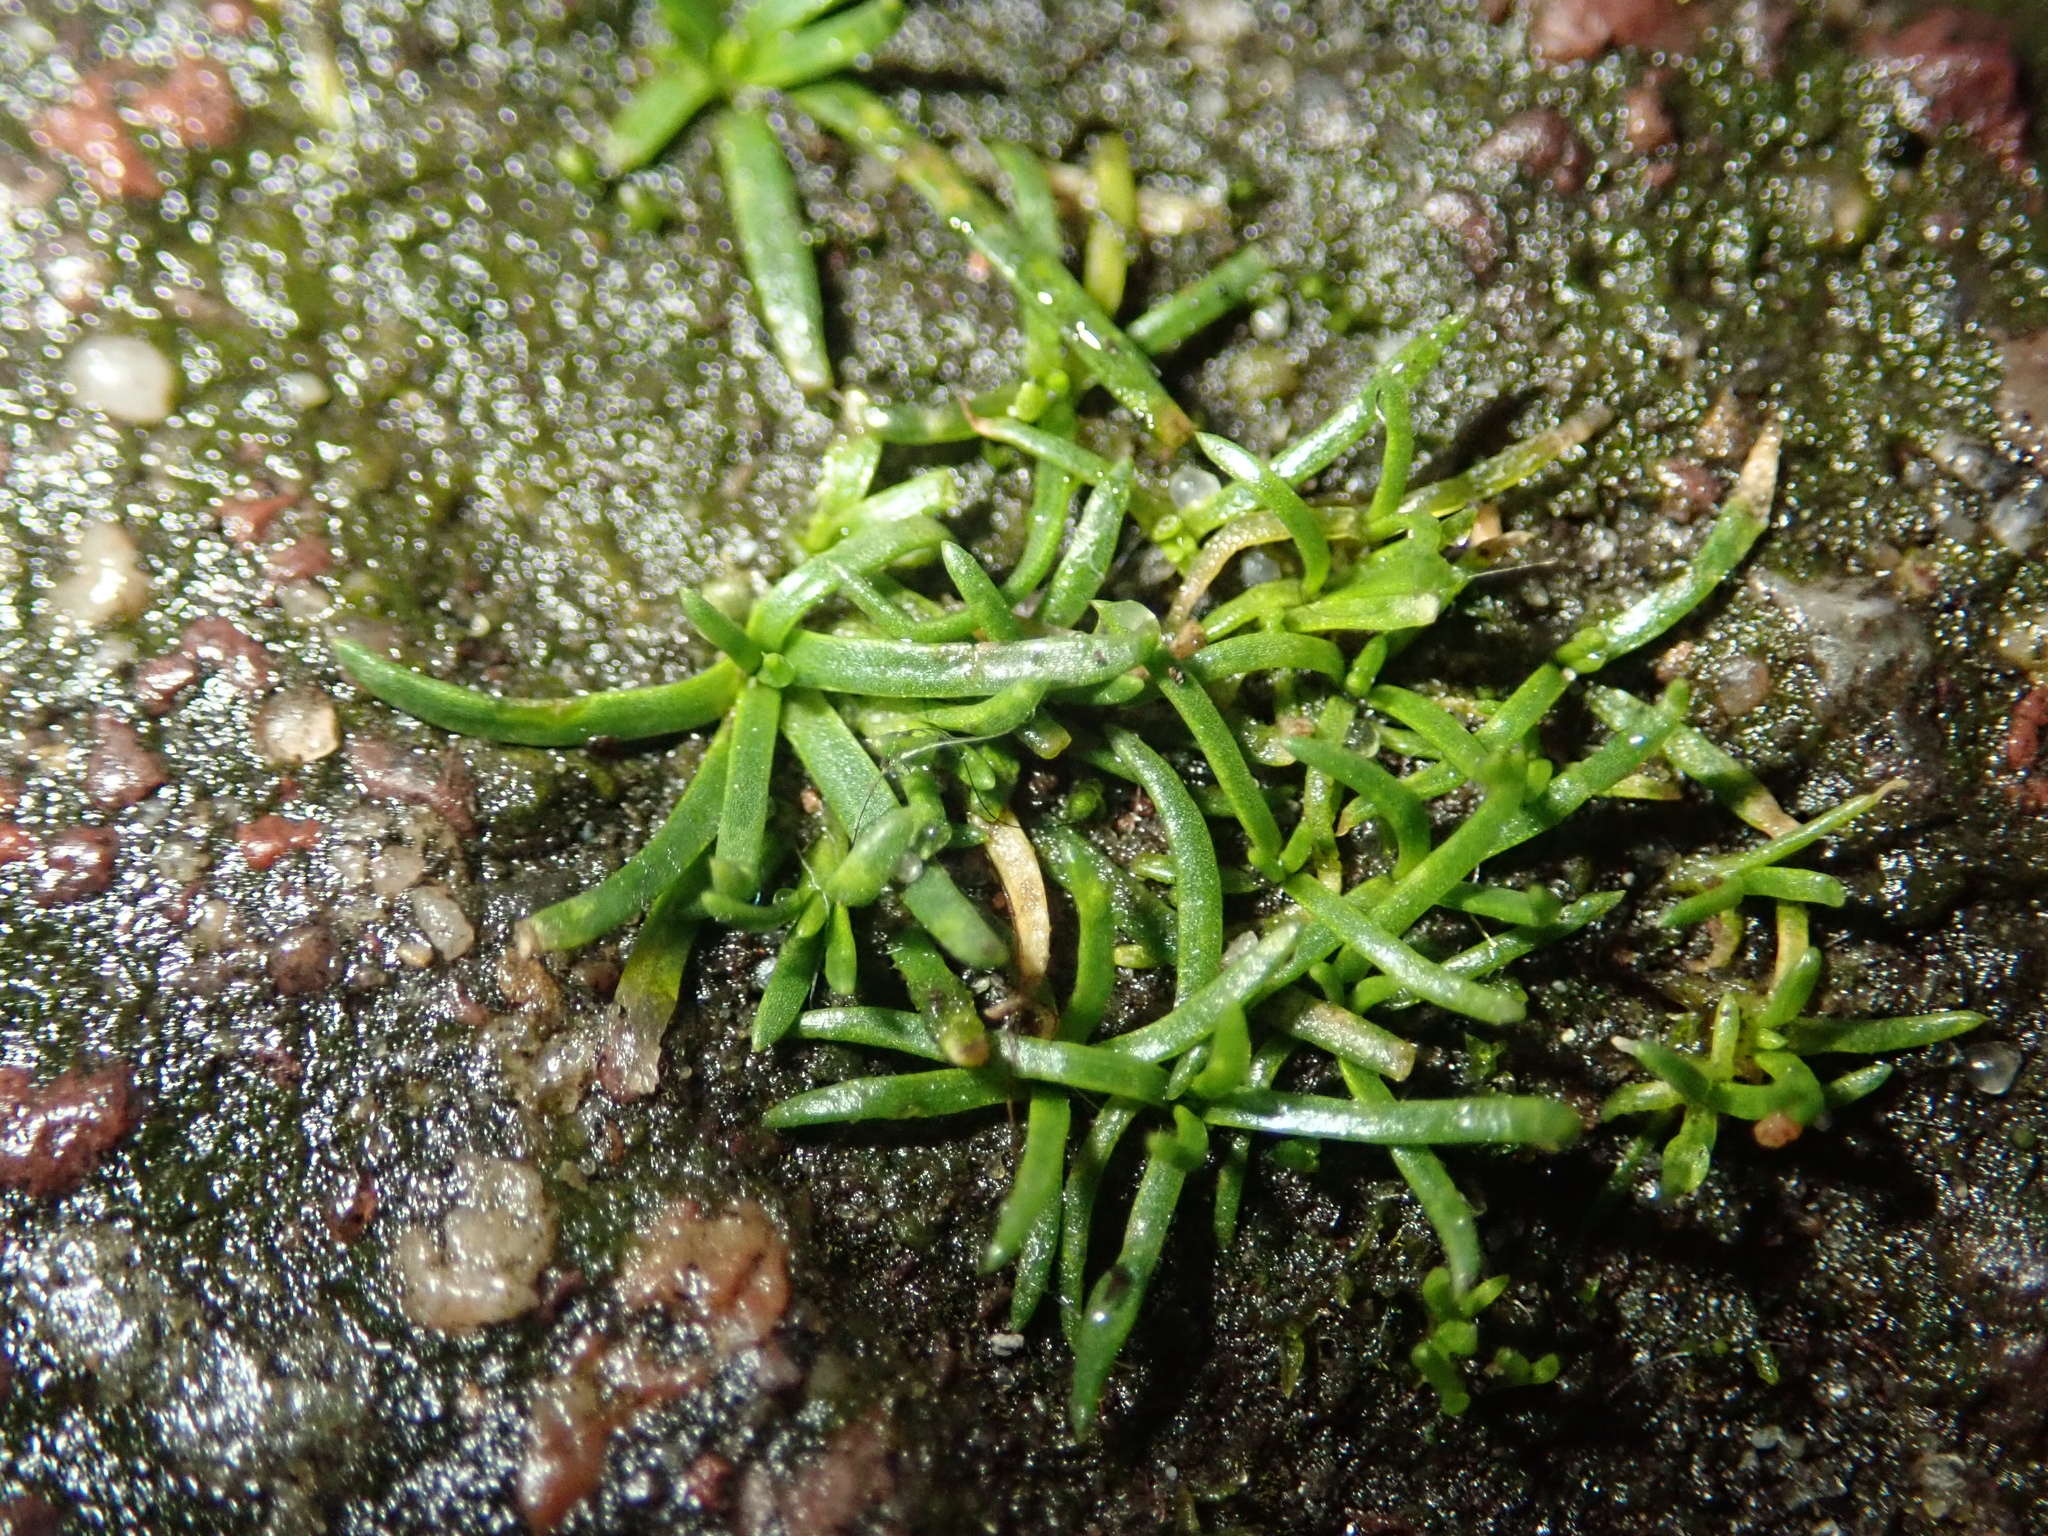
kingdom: Plantae
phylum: Tracheophyta
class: Magnoliopsida
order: Caryophyllales
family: Caryophyllaceae
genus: Sagina
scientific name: Sagina procumbens
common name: Procumbent pearlwort
